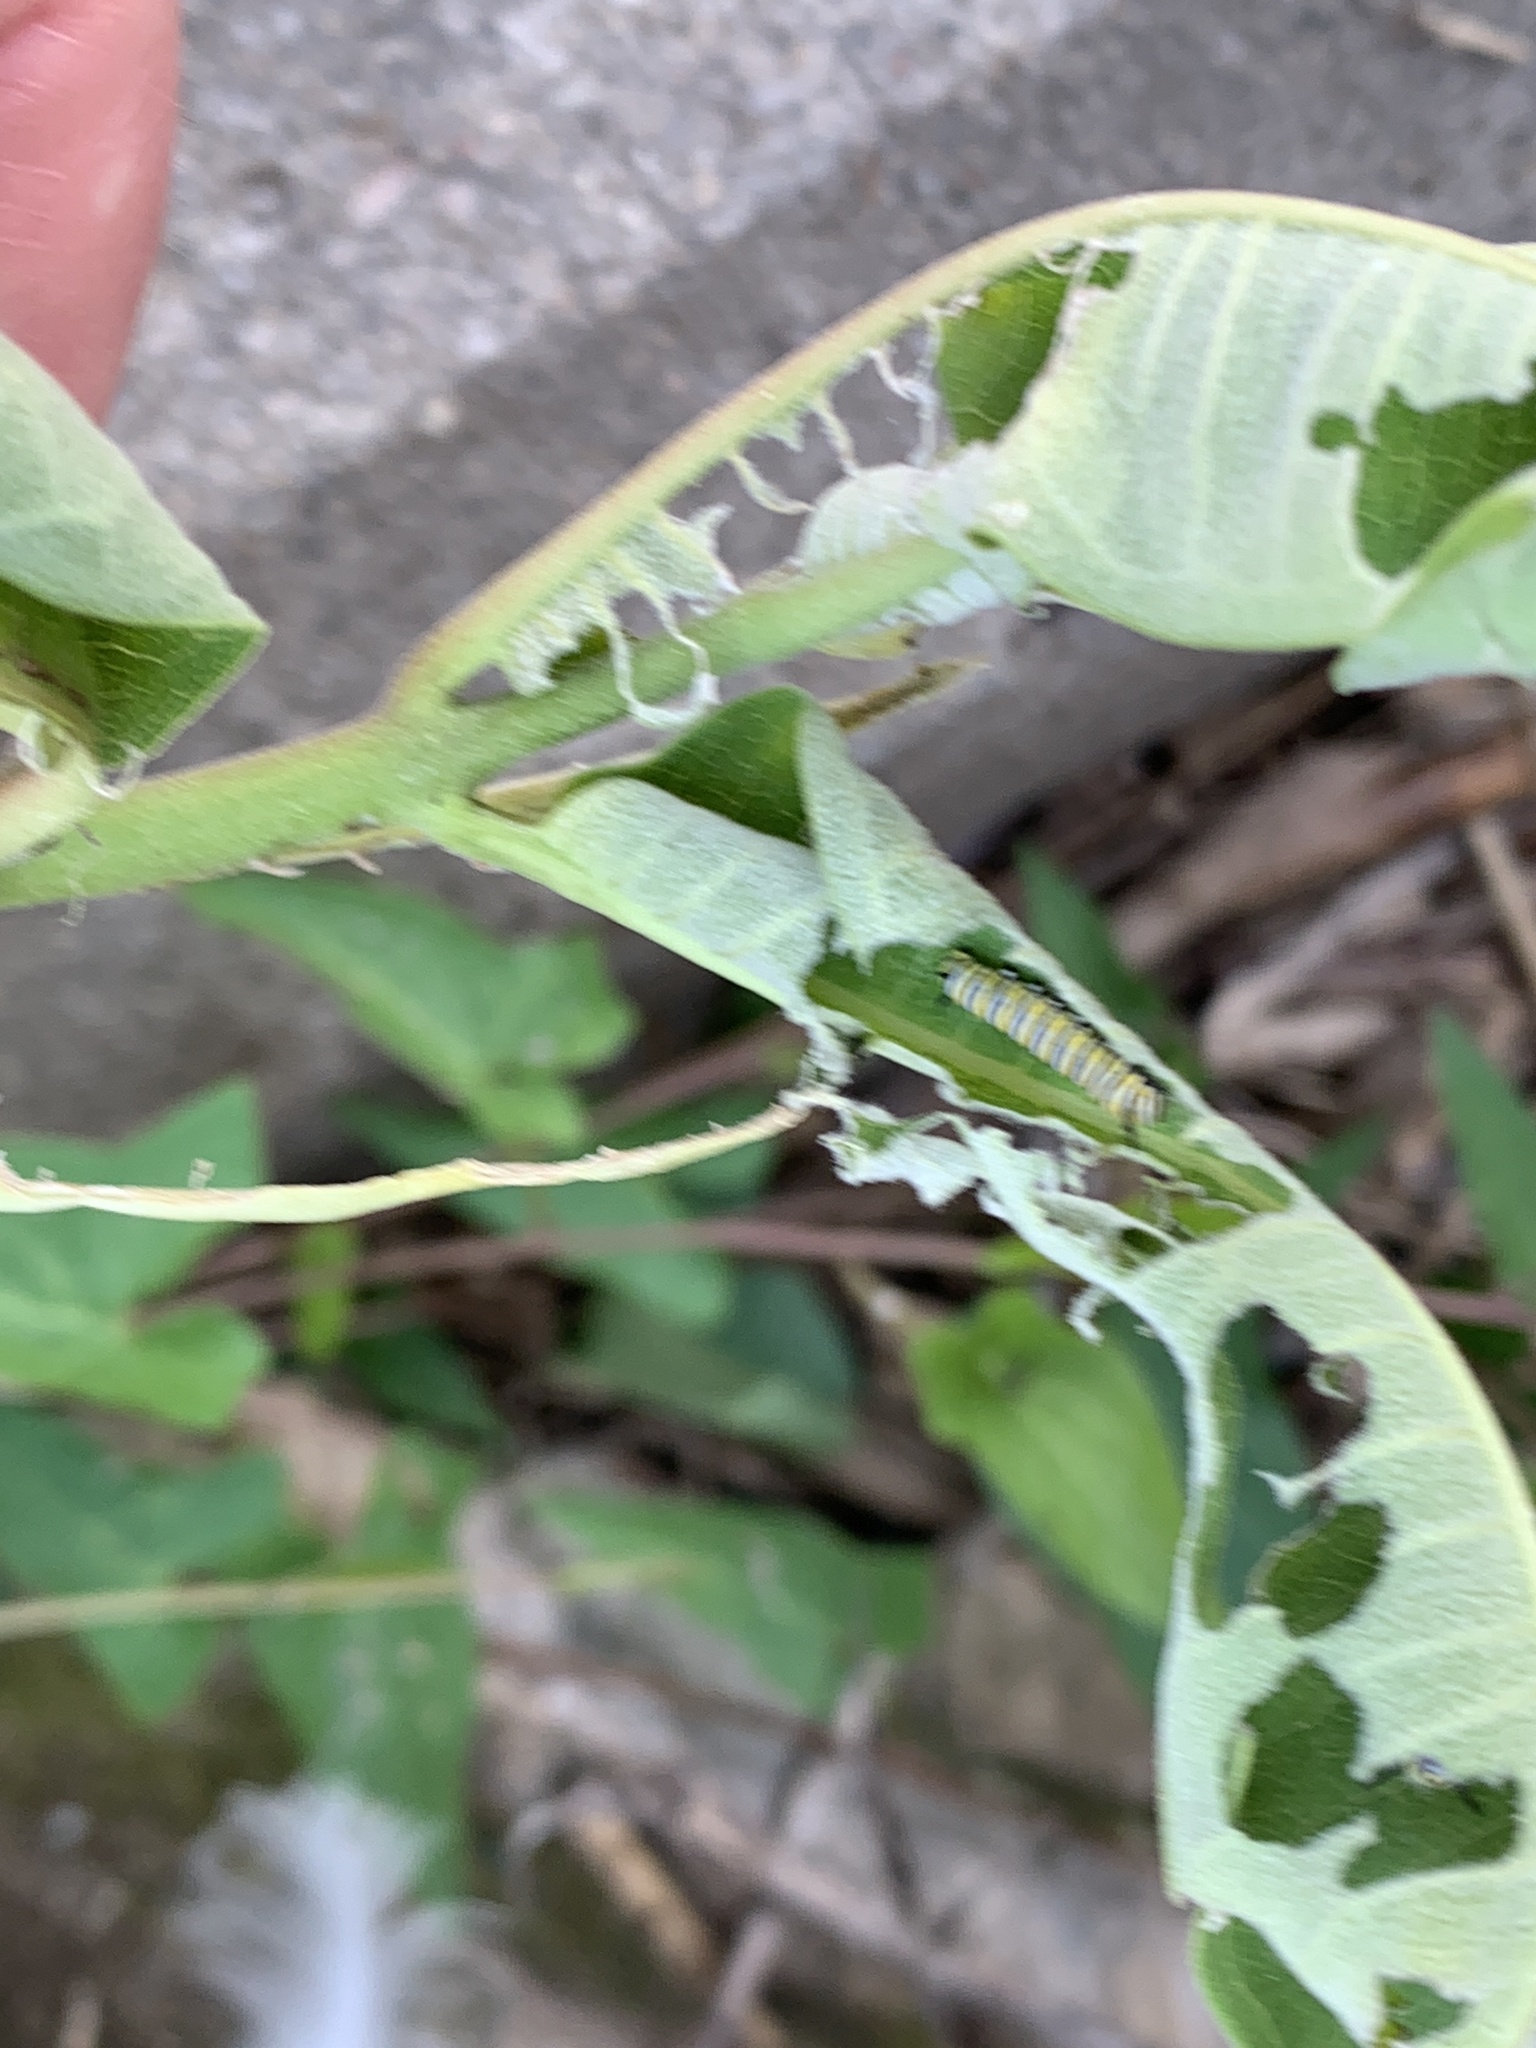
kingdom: Animalia
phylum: Arthropoda
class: Insecta
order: Lepidoptera
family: Nymphalidae
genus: Danaus
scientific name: Danaus plexippus
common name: Monarch
